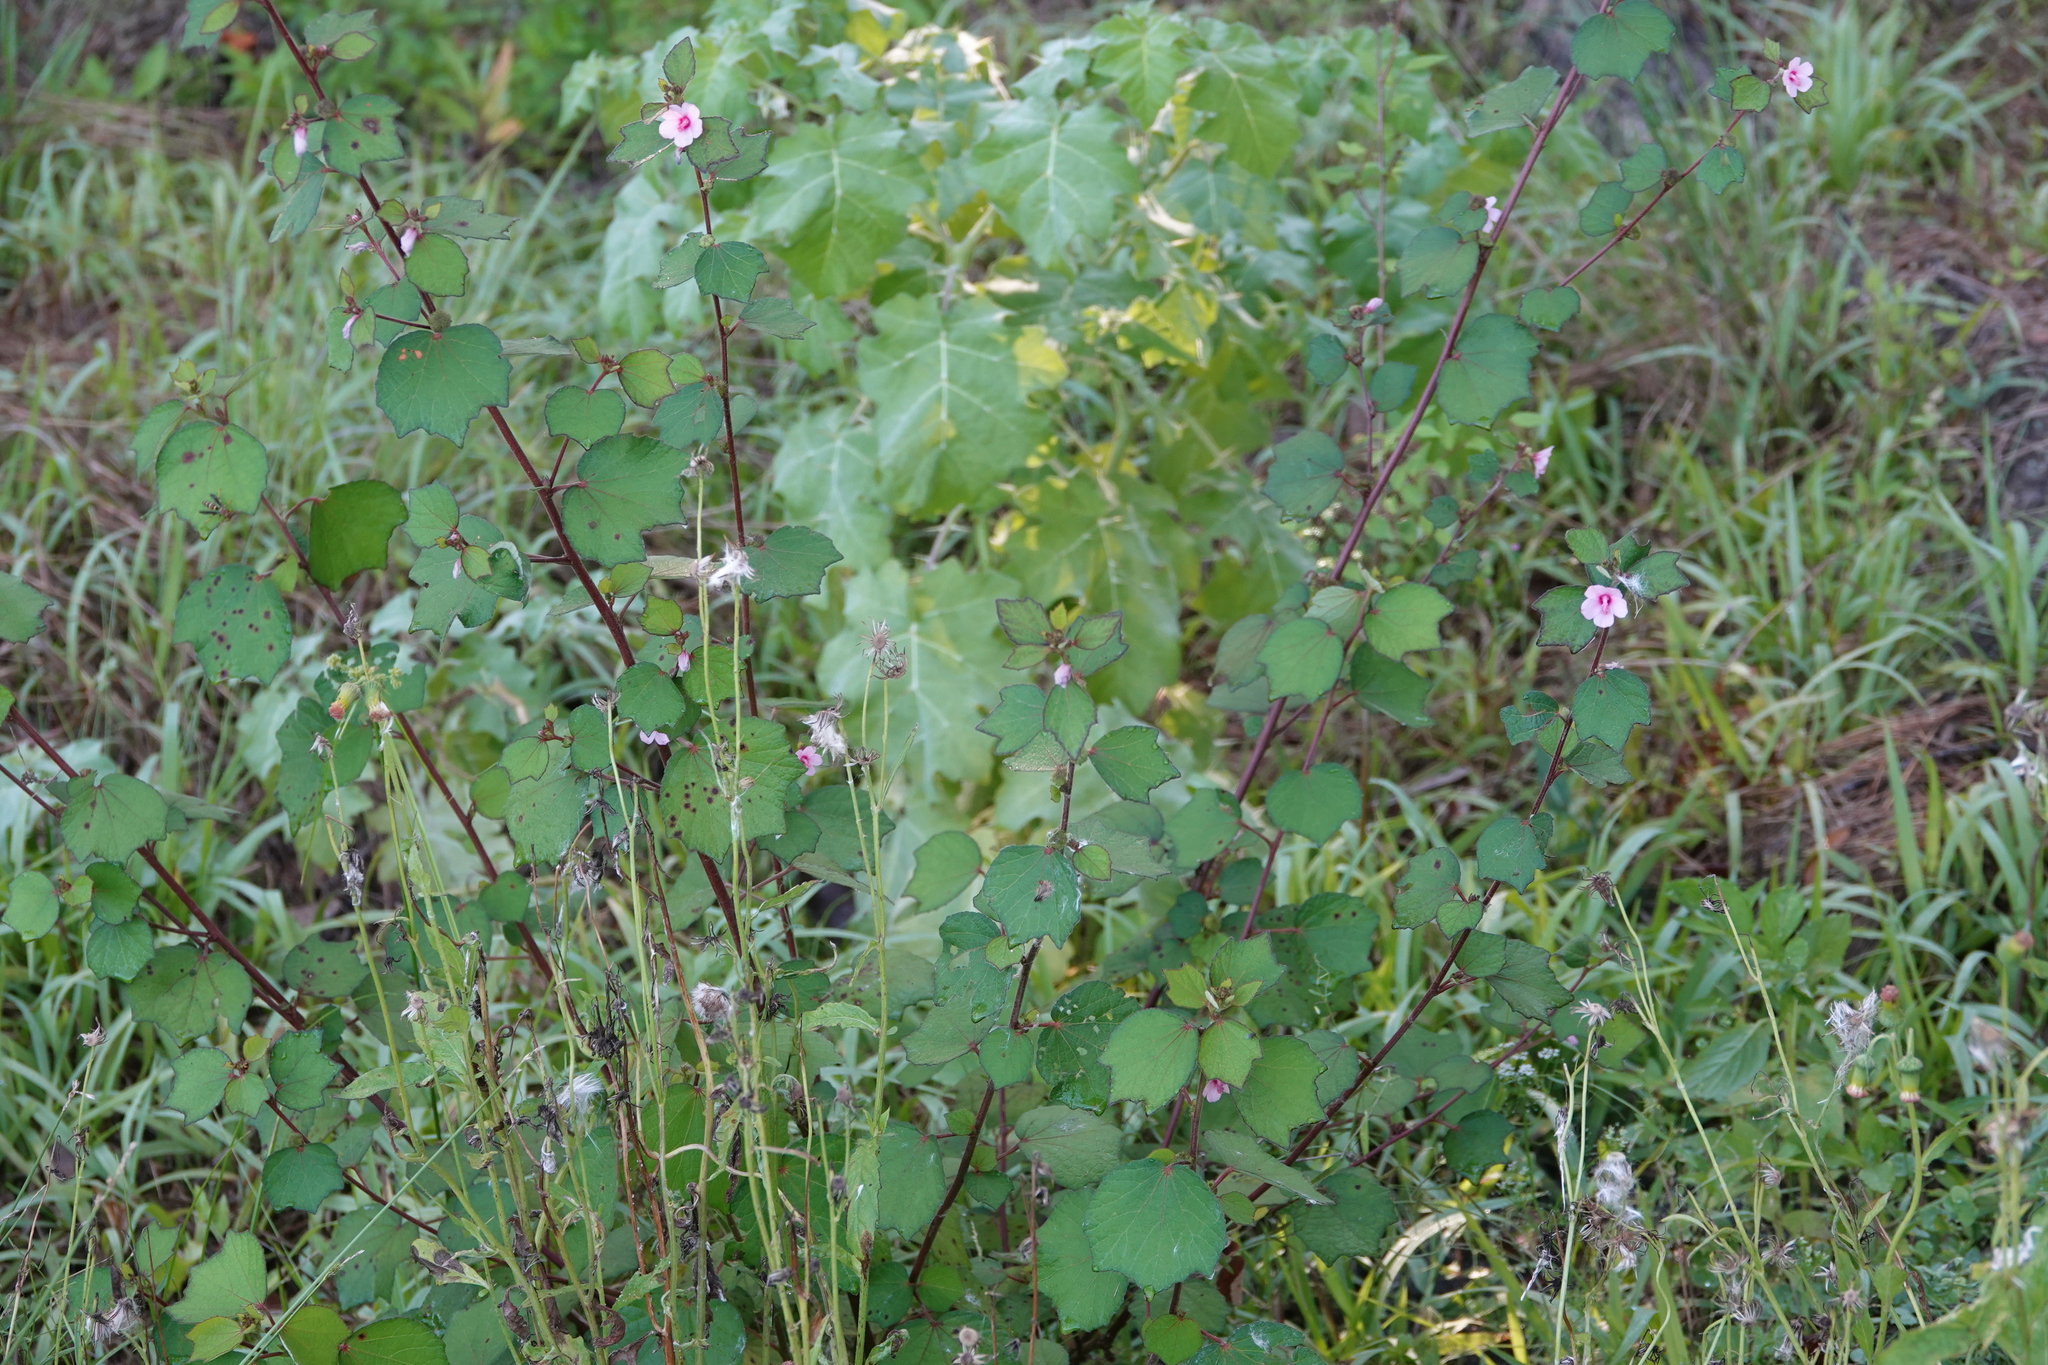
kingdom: Plantae
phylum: Tracheophyta
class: Magnoliopsida
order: Malvales
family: Malvaceae
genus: Urena
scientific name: Urena lobata
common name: Caesarweed
